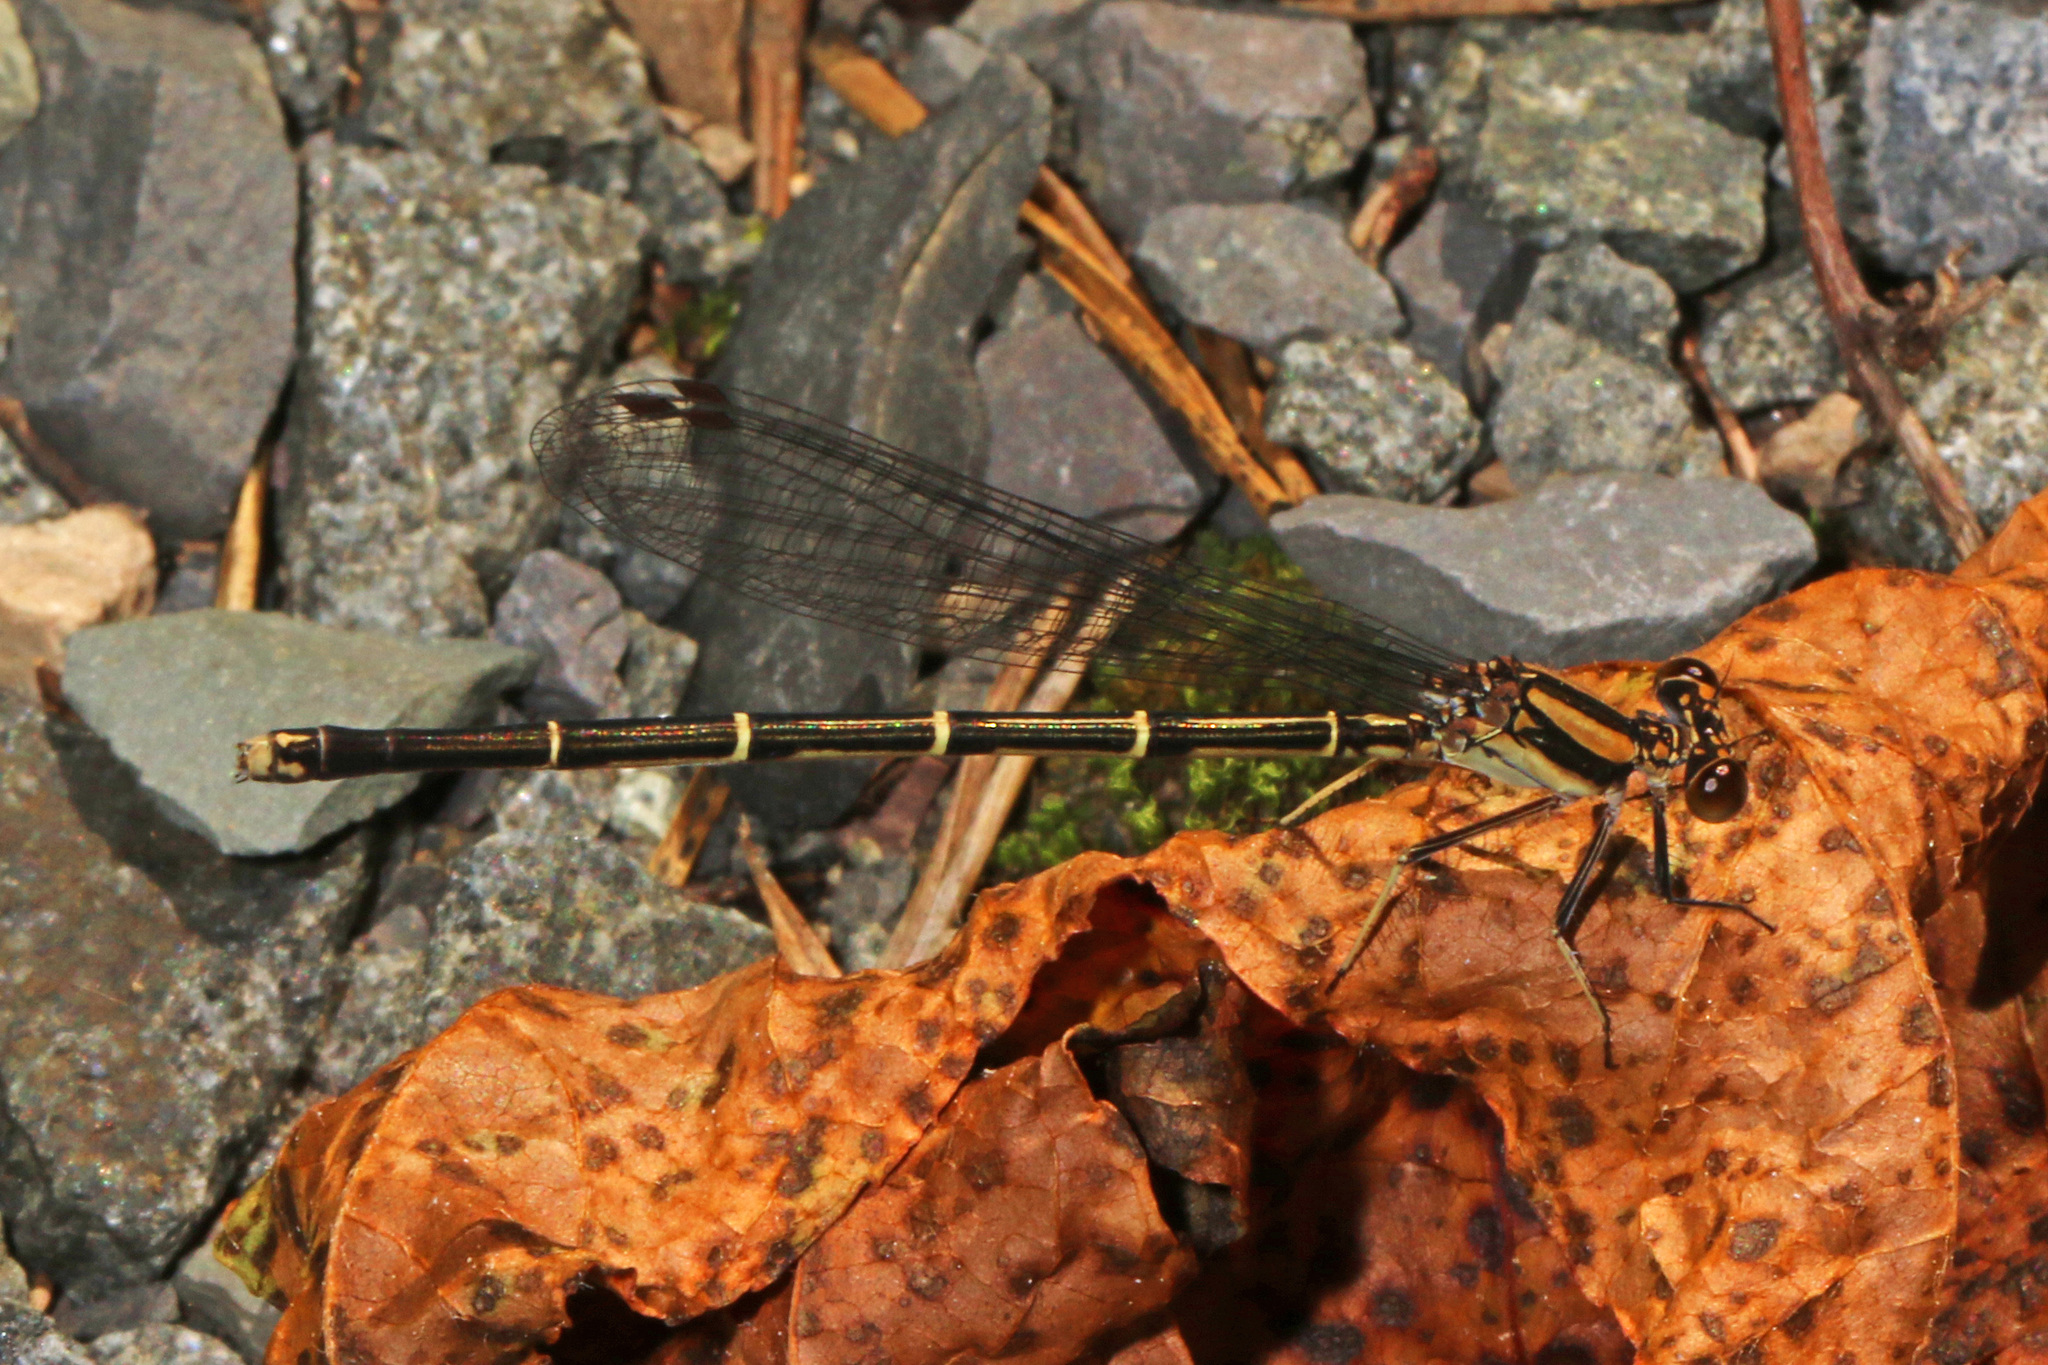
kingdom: Animalia
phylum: Arthropoda
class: Insecta
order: Odonata
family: Coenagrionidae
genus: Argia
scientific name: Argia tibialis
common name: Blue-tipped dancer
